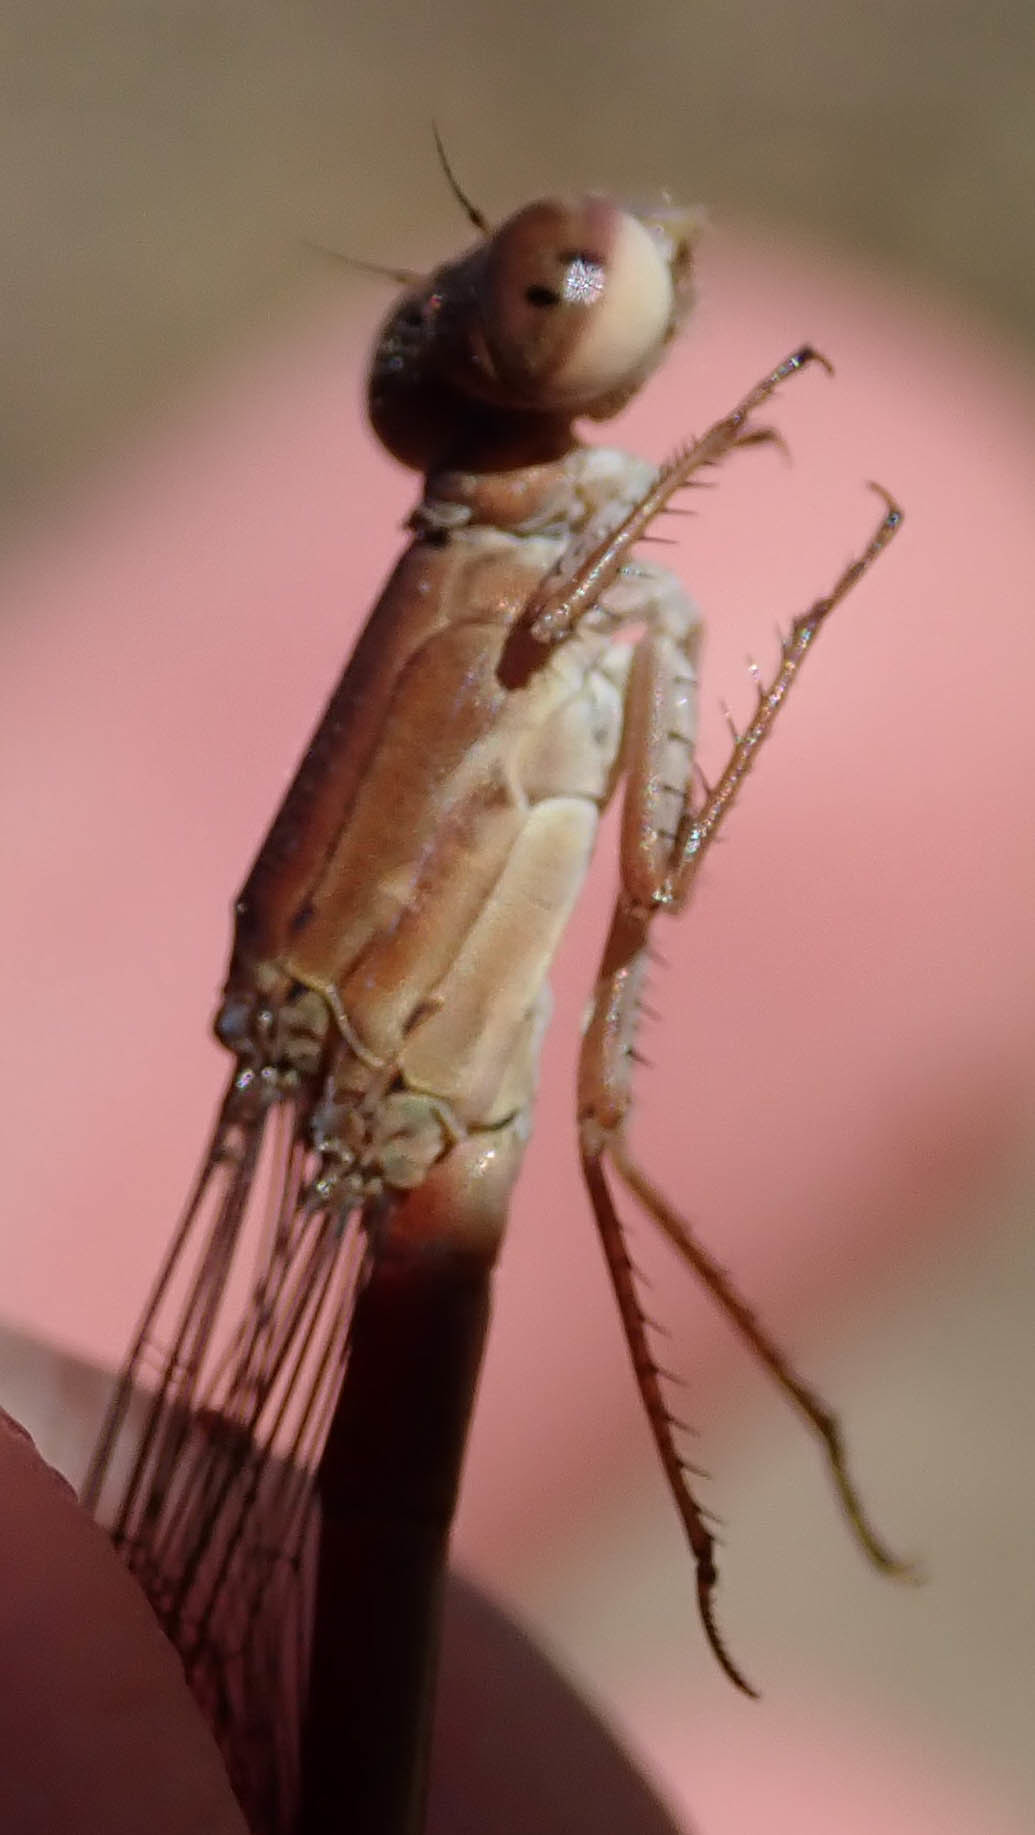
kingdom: Animalia
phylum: Arthropoda
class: Insecta
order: Odonata
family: Coenagrionidae
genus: Ceriagrion
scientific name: Ceriagrion katamborae
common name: White-faced waxtail
